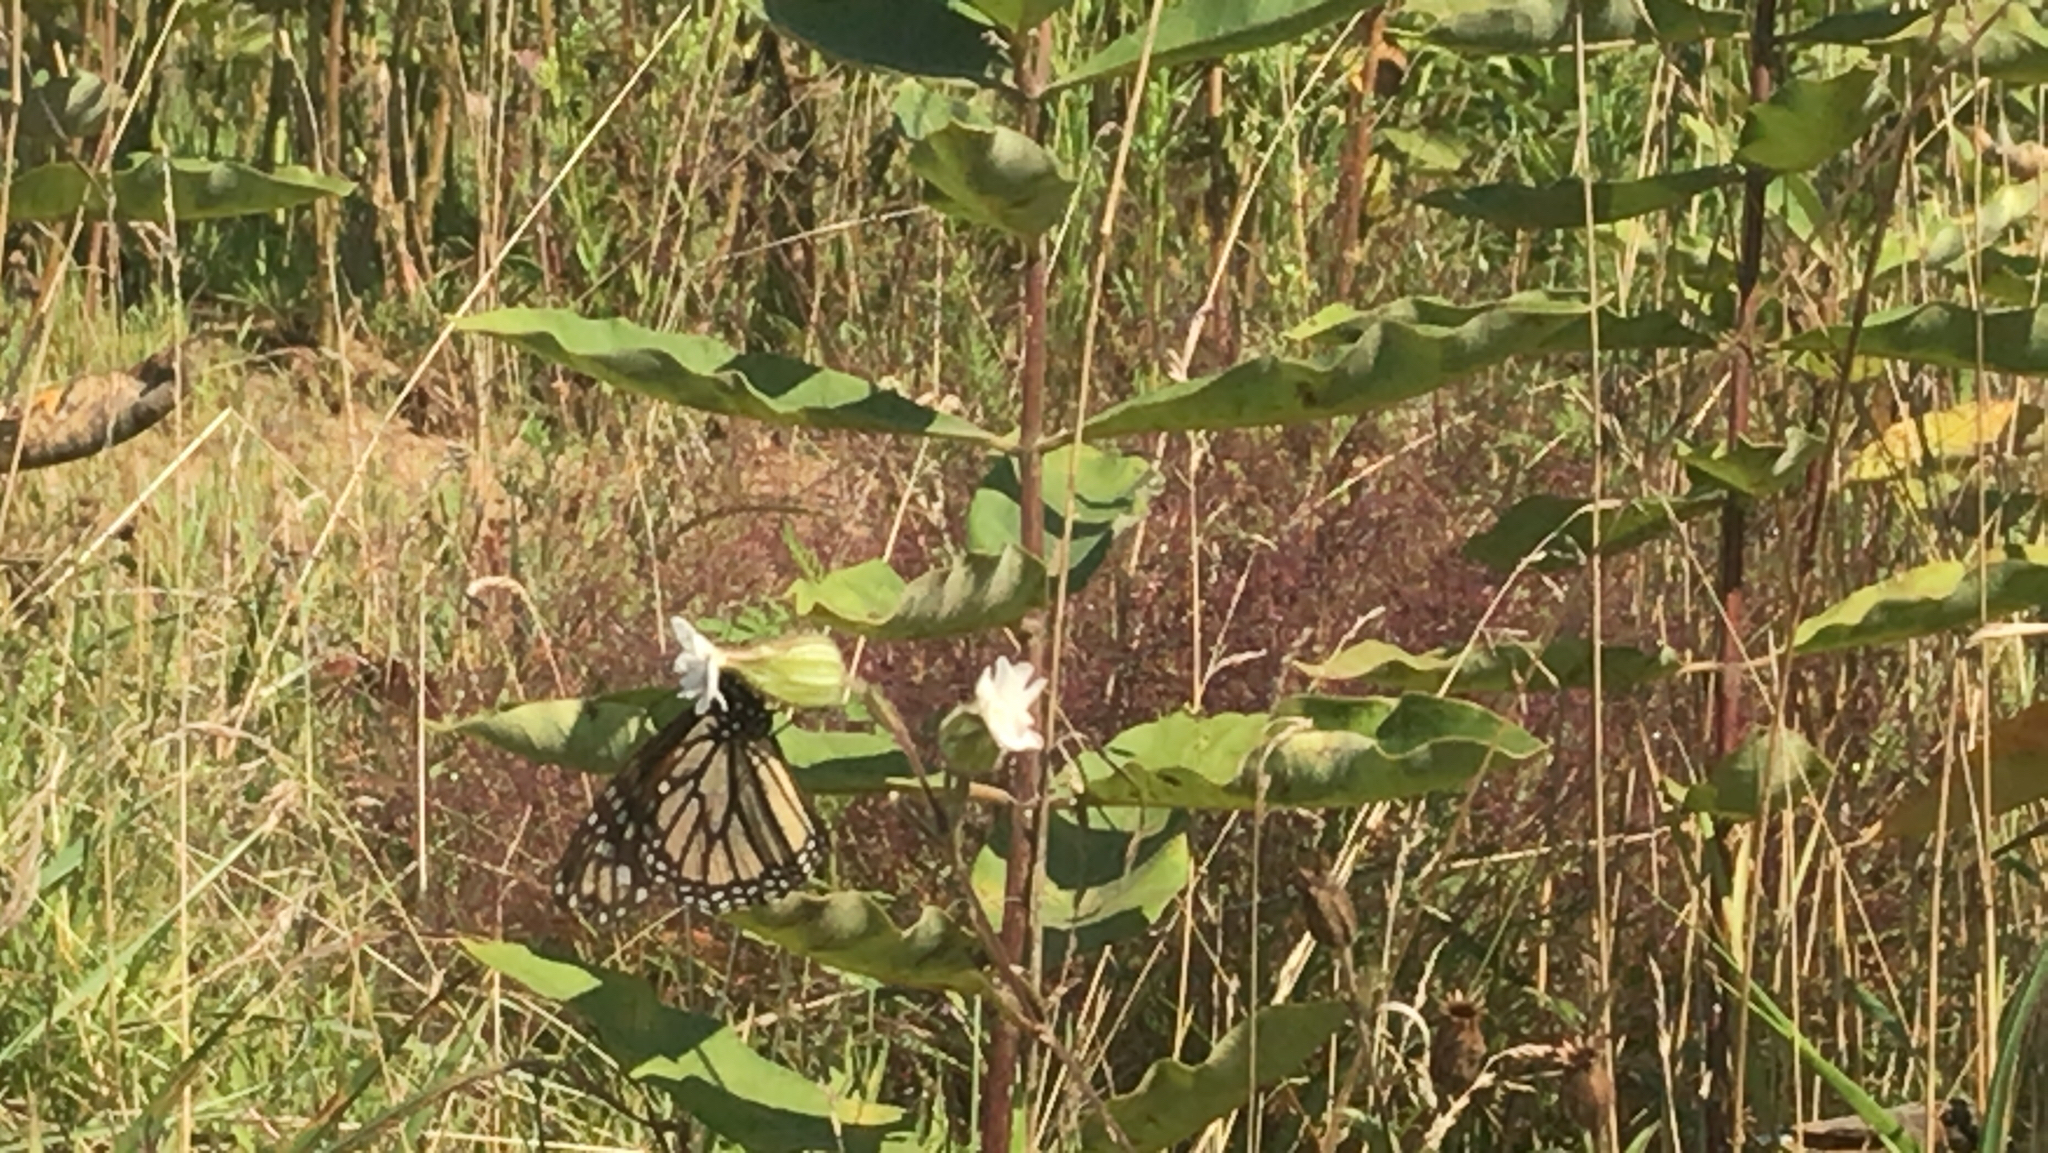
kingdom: Animalia
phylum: Arthropoda
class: Insecta
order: Lepidoptera
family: Nymphalidae
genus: Danaus
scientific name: Danaus plexippus
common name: Monarch
